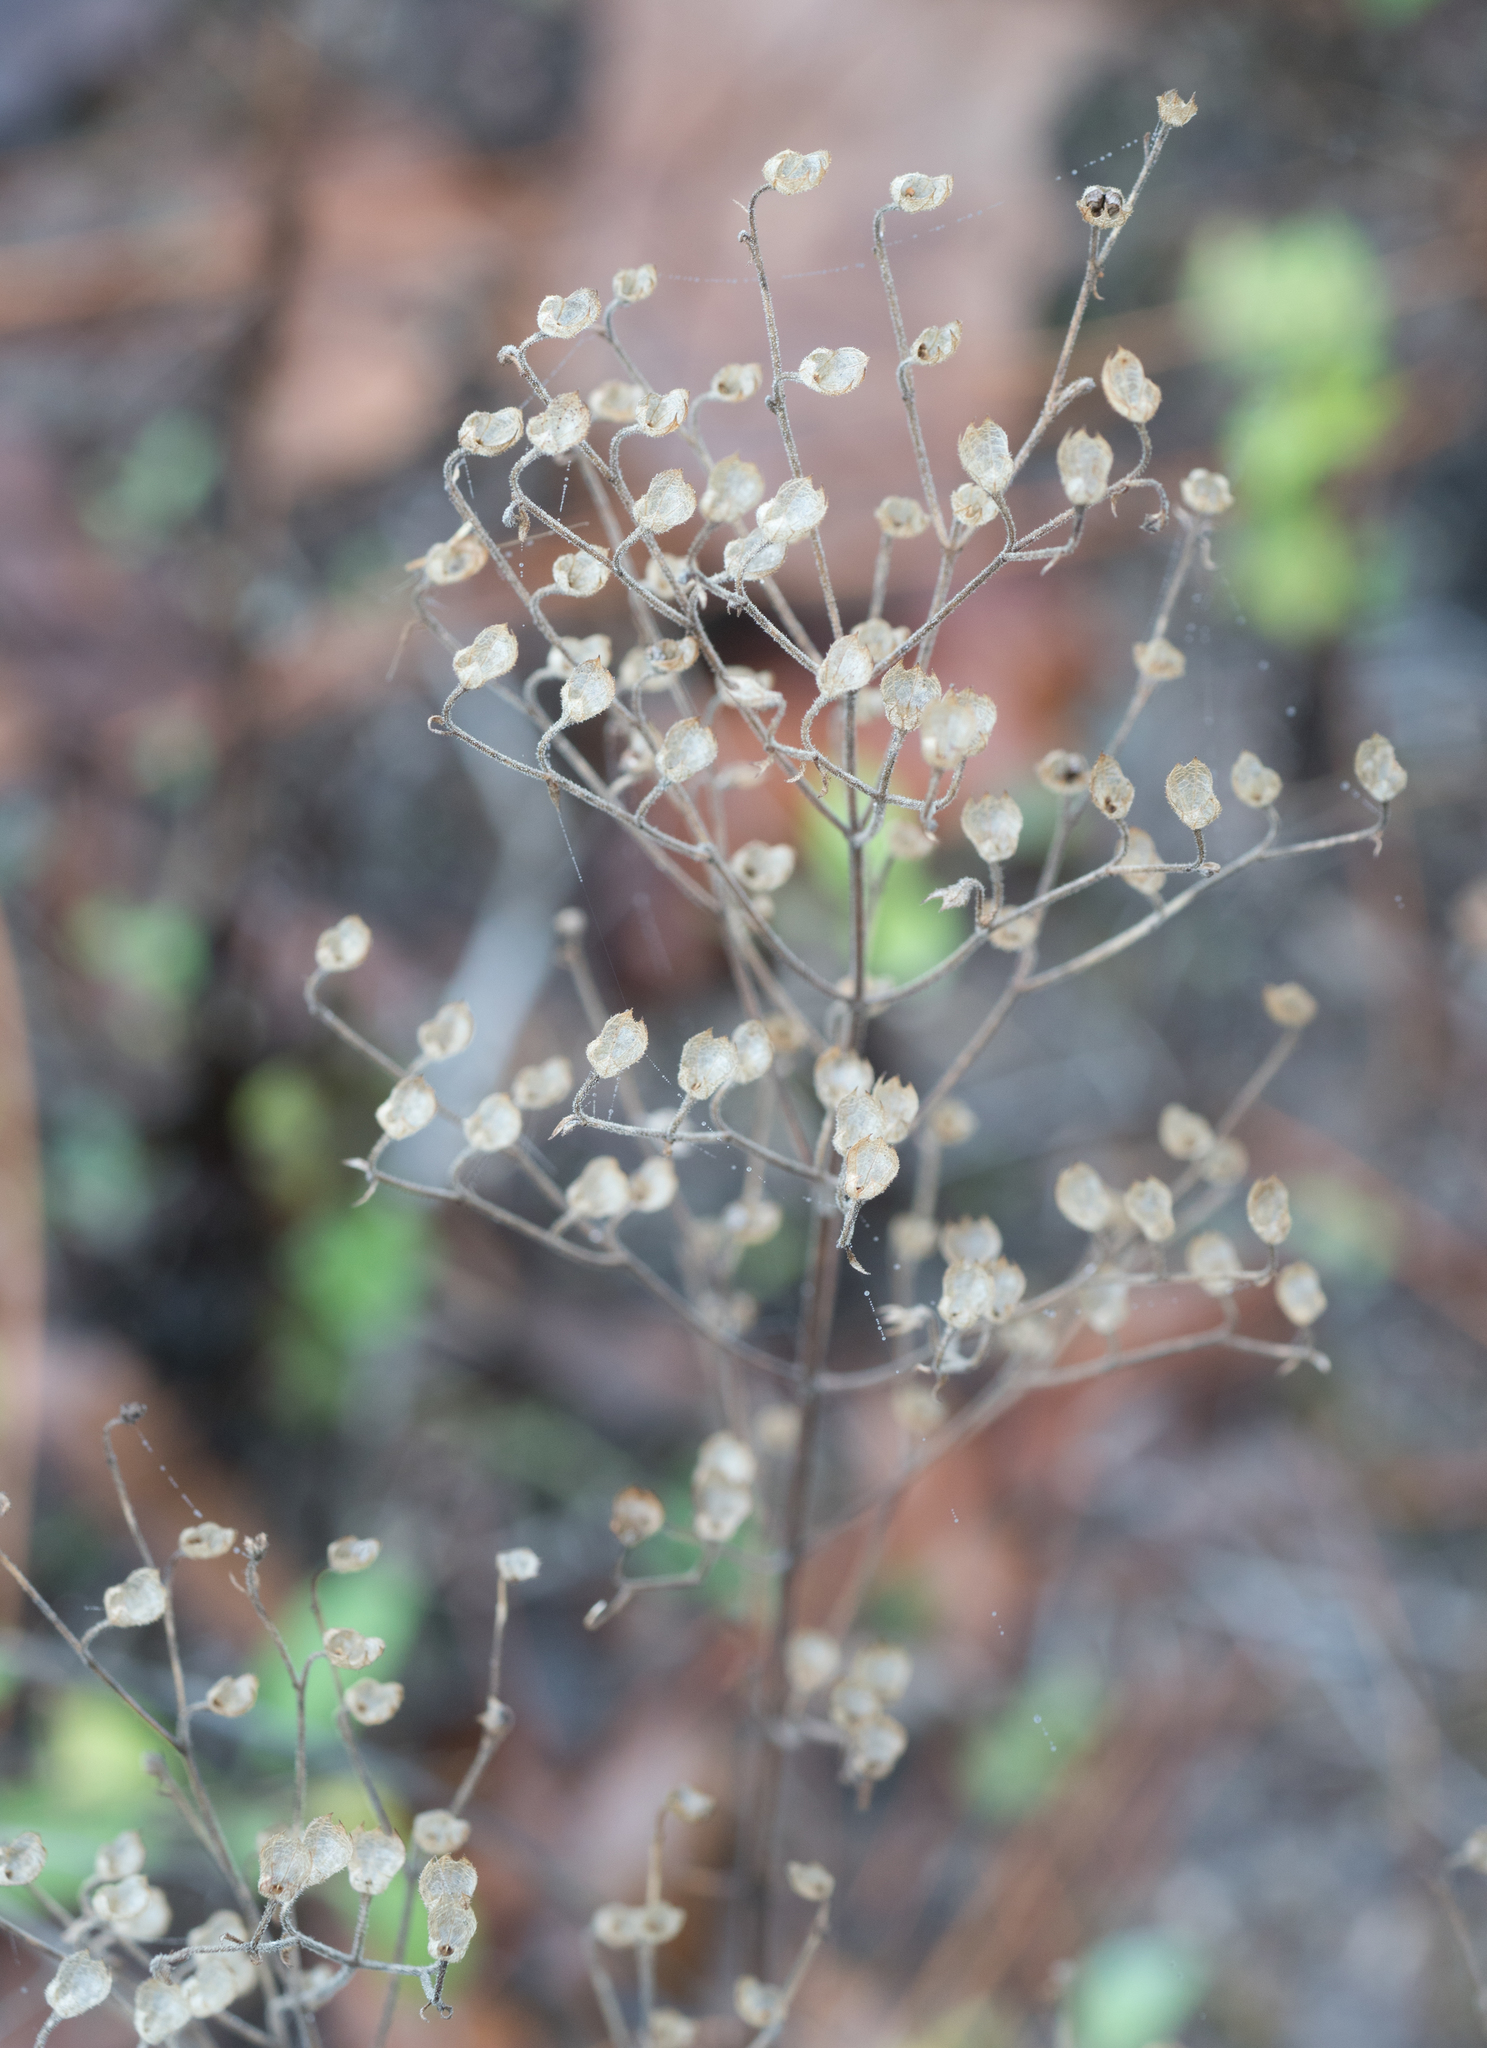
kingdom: Plantae
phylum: Tracheophyta
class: Magnoliopsida
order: Lamiales
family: Lamiaceae
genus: Trichostema
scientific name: Trichostema dichotomum
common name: Bastard pennyroyal
